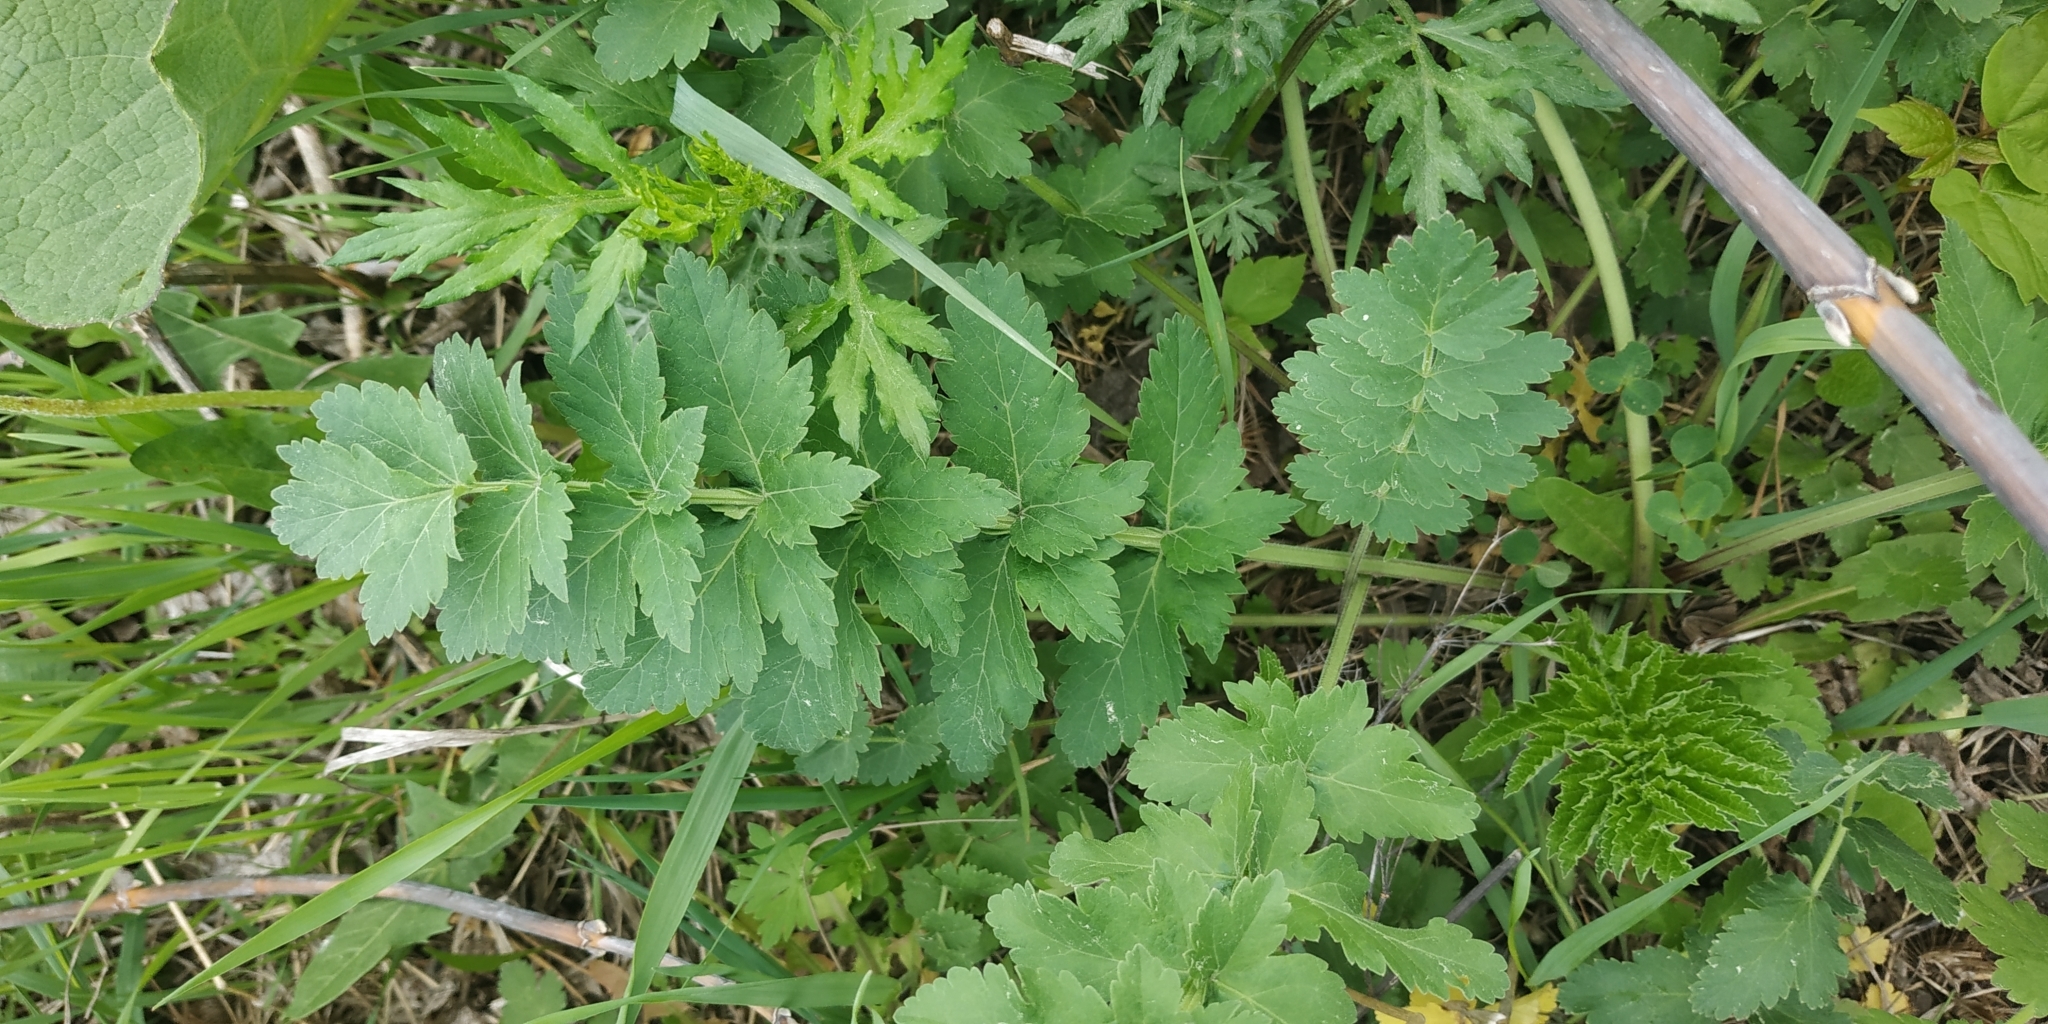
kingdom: Plantae
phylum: Tracheophyta
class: Magnoliopsida
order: Apiales
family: Apiaceae
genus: Pimpinella
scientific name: Pimpinella saxifraga
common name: Burnet-saxifrage
